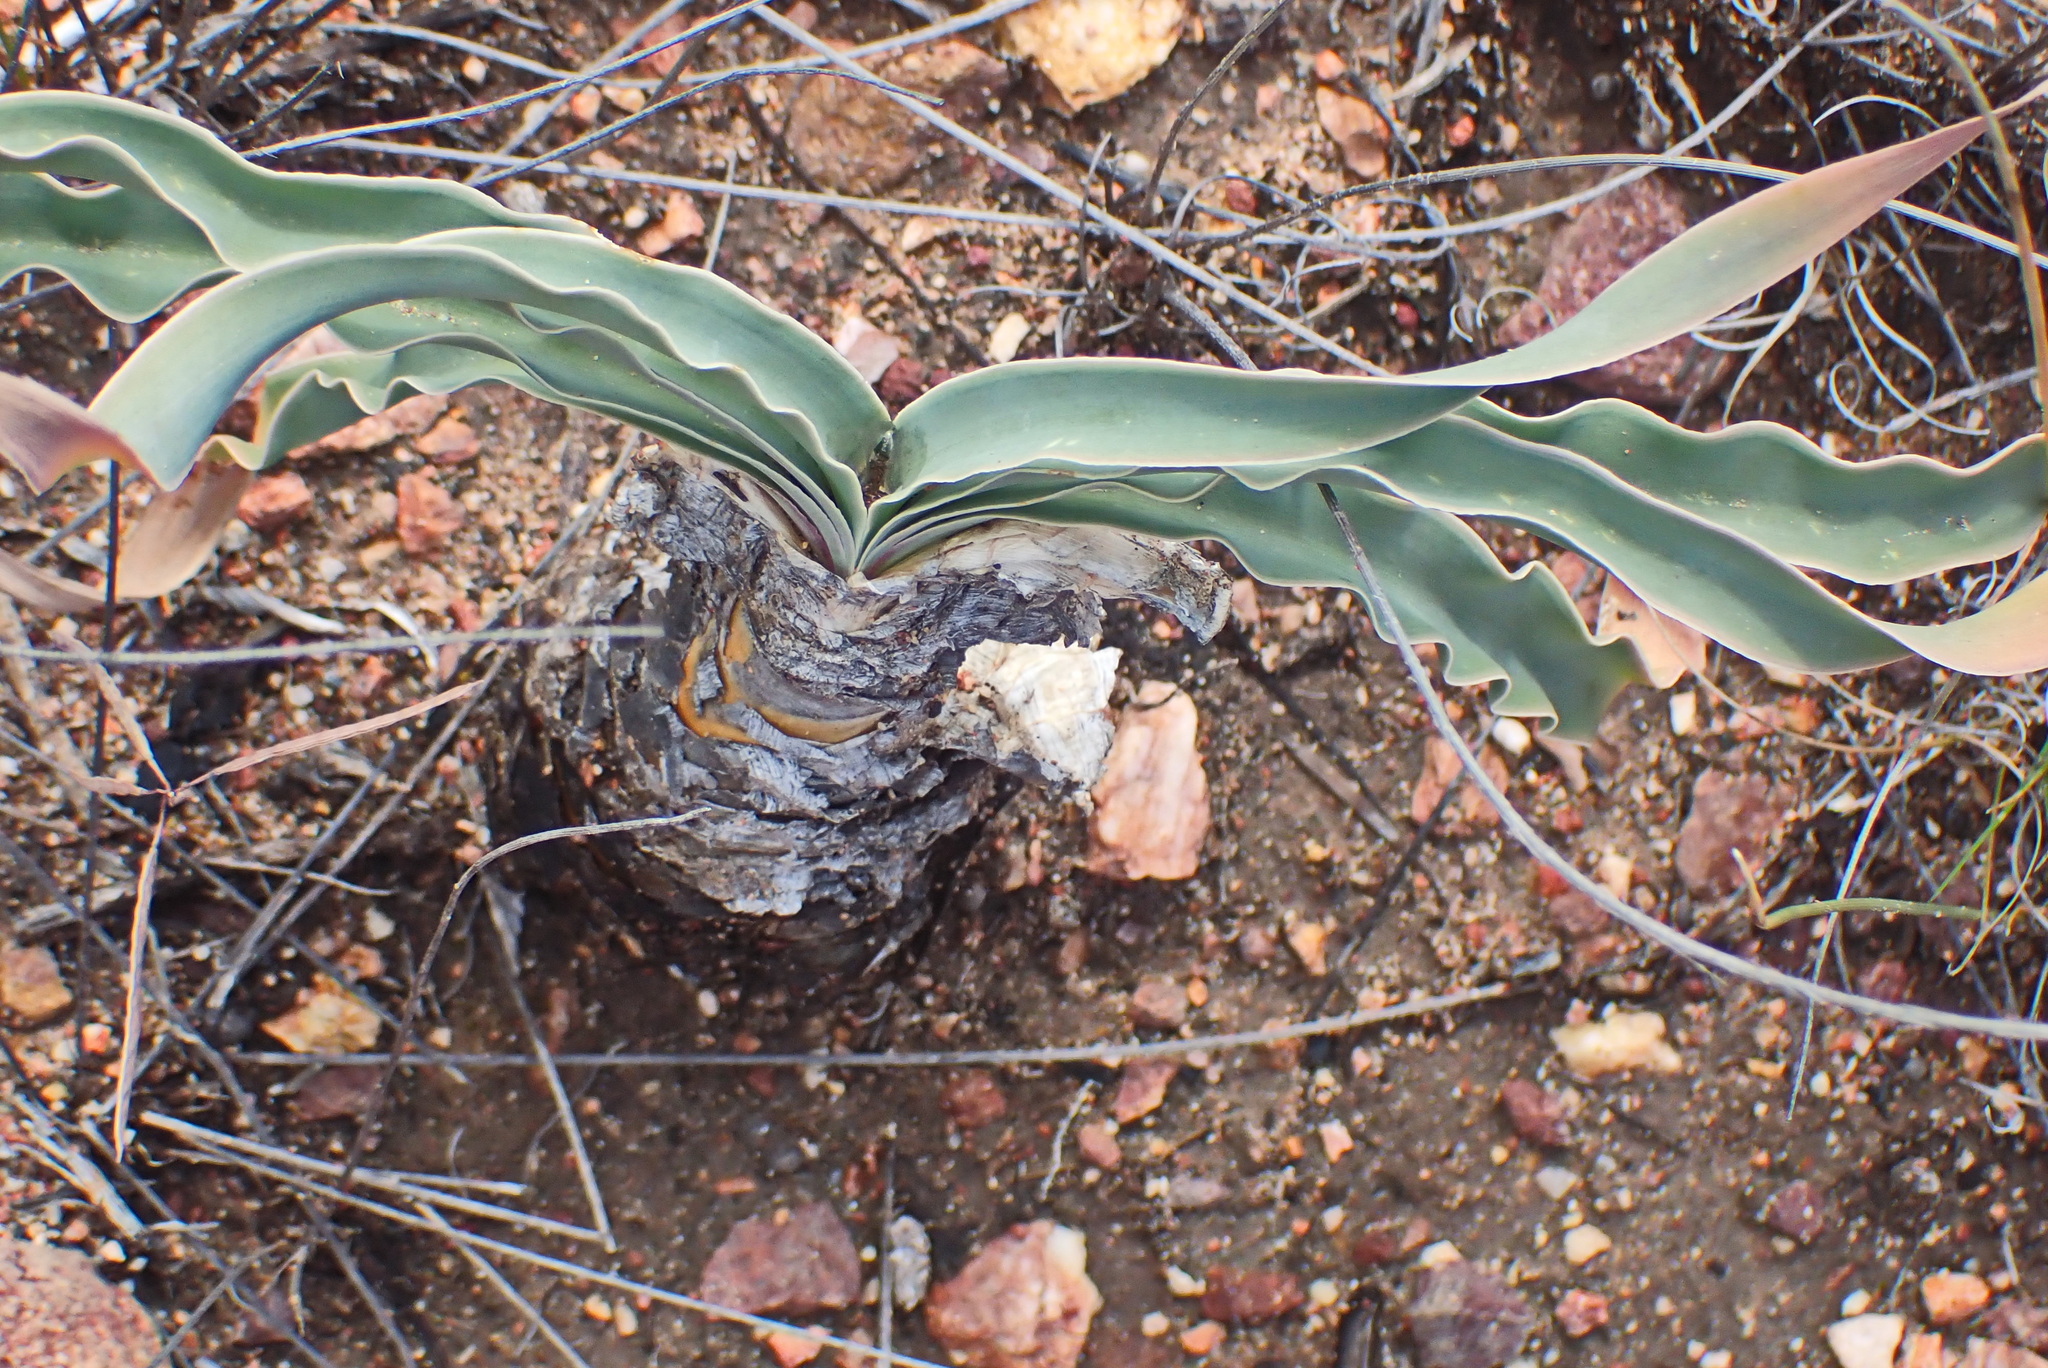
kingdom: Plantae
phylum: Tracheophyta
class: Liliopsida
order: Asparagales
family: Amaryllidaceae
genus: Boophone
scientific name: Boophone disticha
